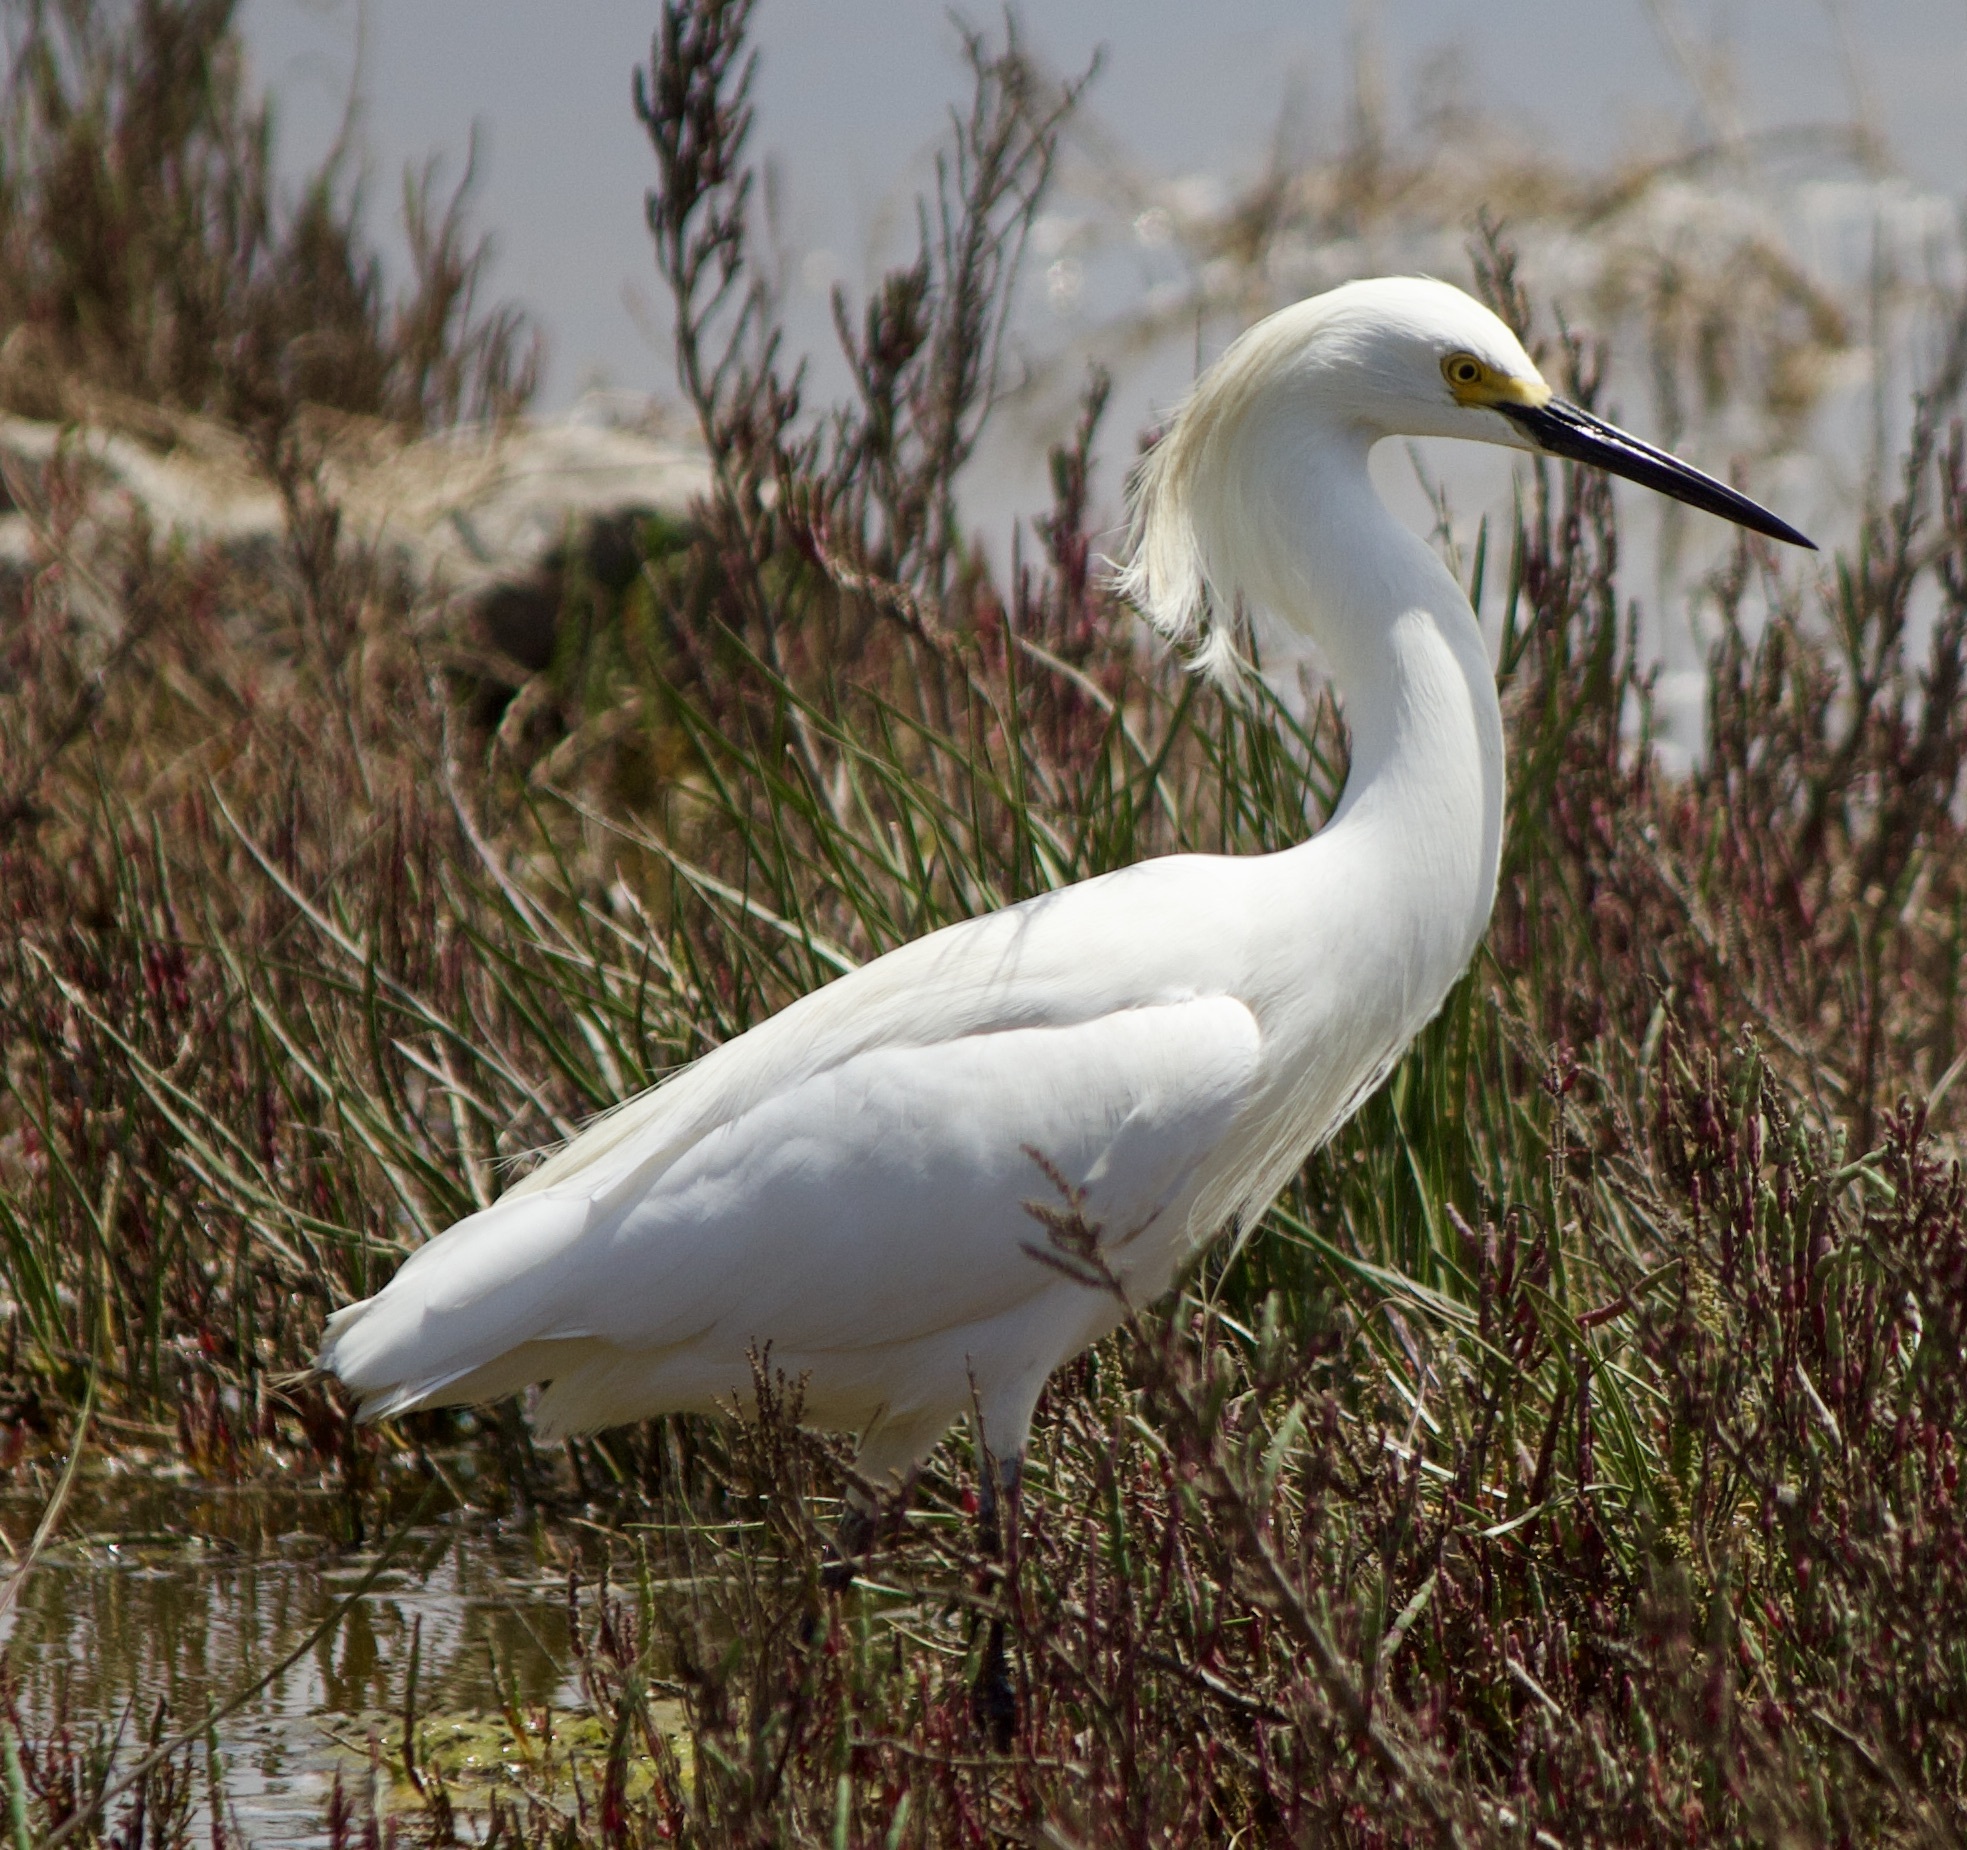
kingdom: Animalia
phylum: Chordata
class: Aves
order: Pelecaniformes
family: Ardeidae
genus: Egretta
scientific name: Egretta thula
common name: Snowy egret
